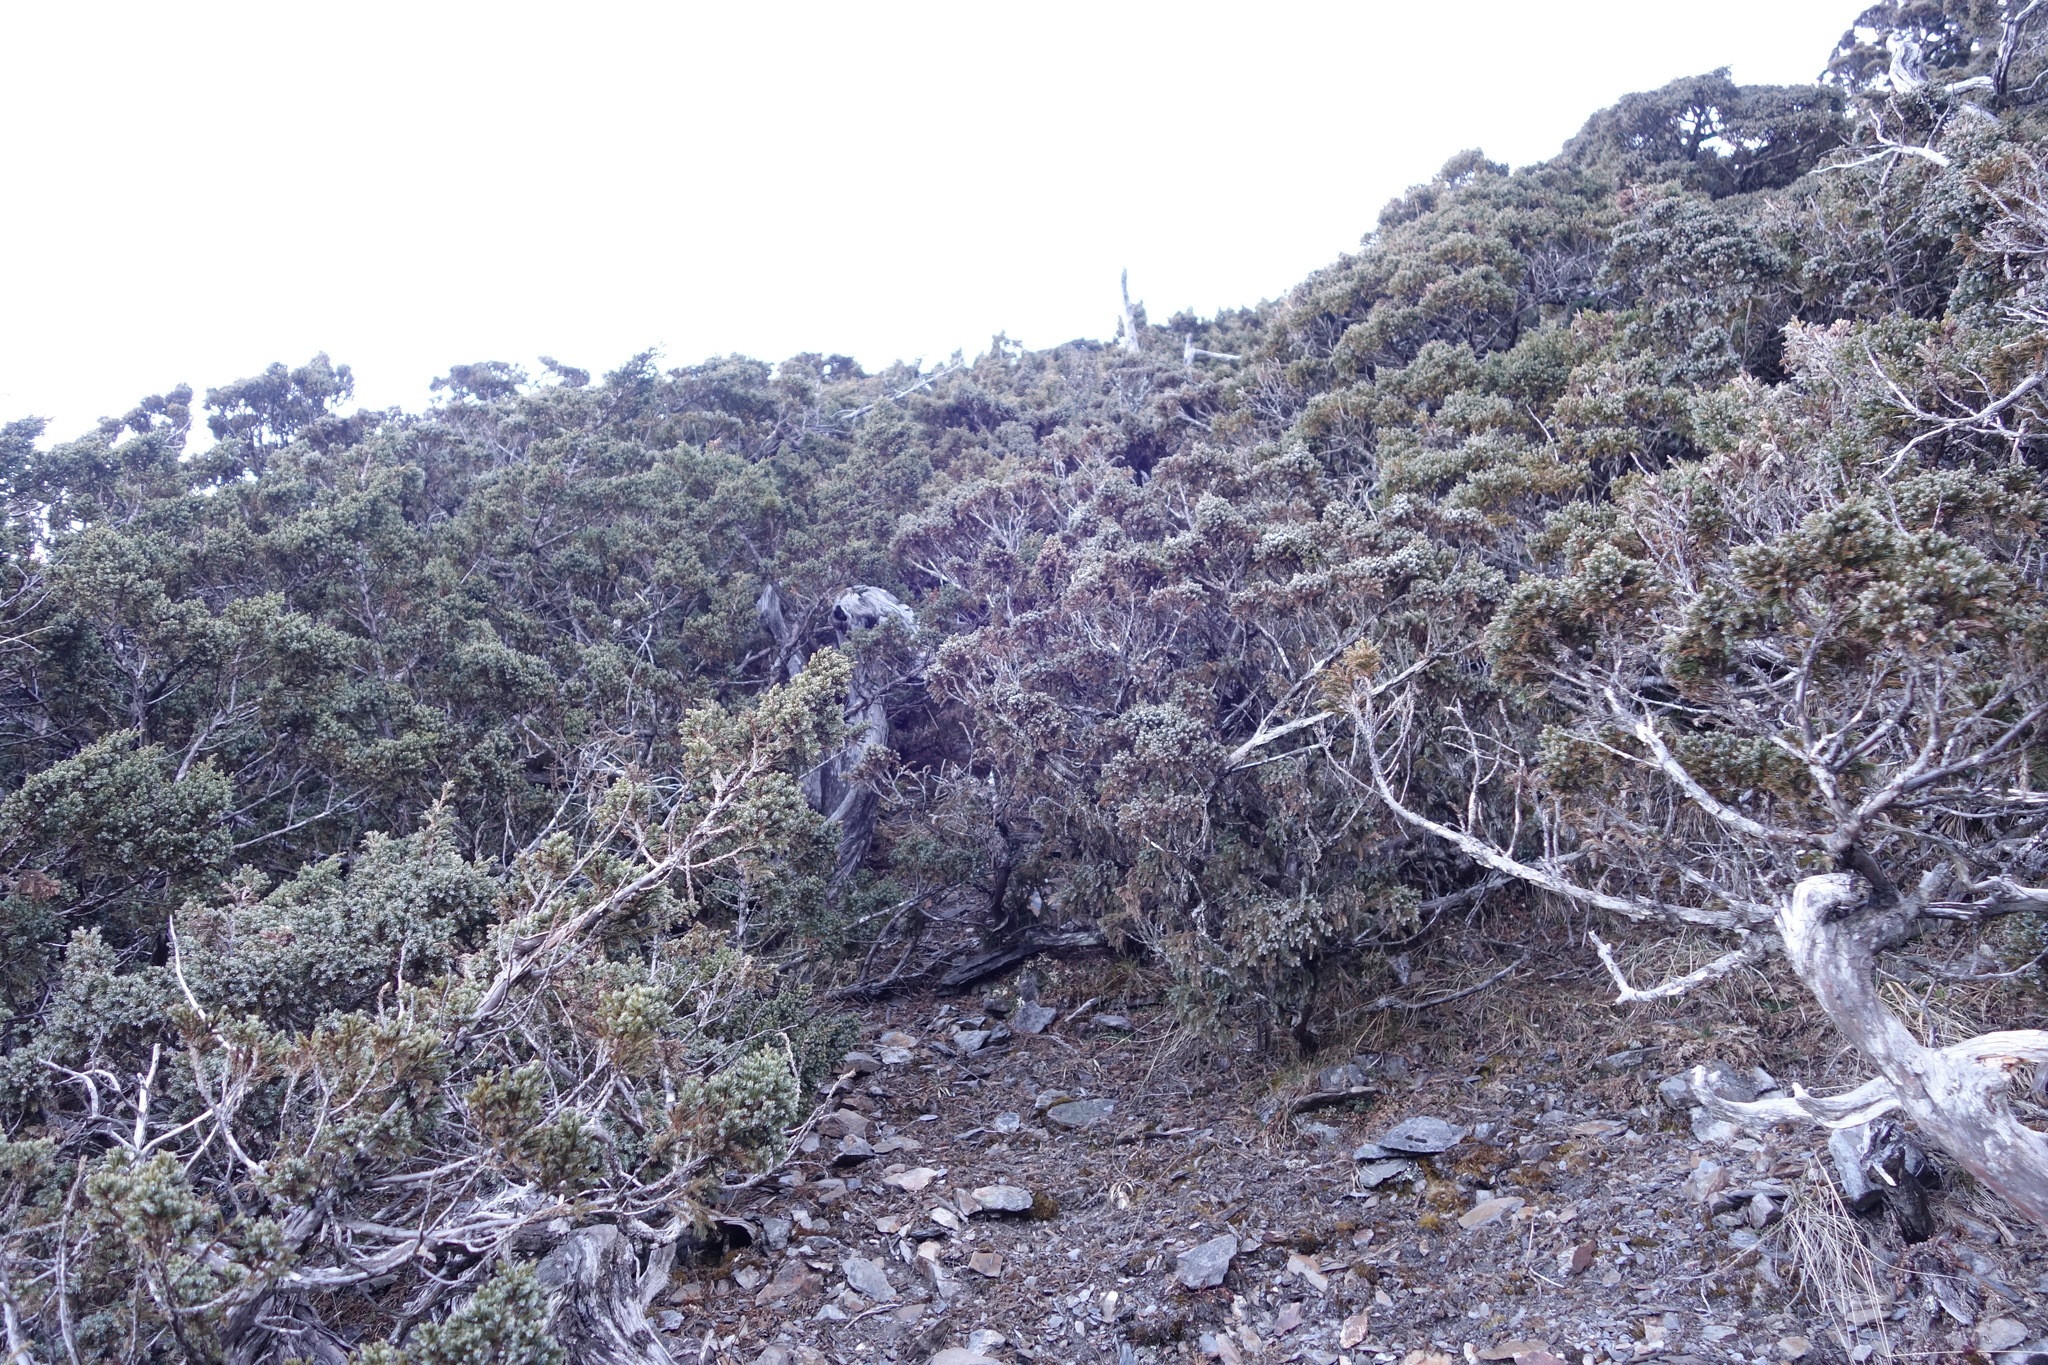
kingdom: Plantae
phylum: Tracheophyta
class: Pinopsida
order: Pinales
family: Cupressaceae
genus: Juniperus
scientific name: Juniperus squamata
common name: Flaky juniper
